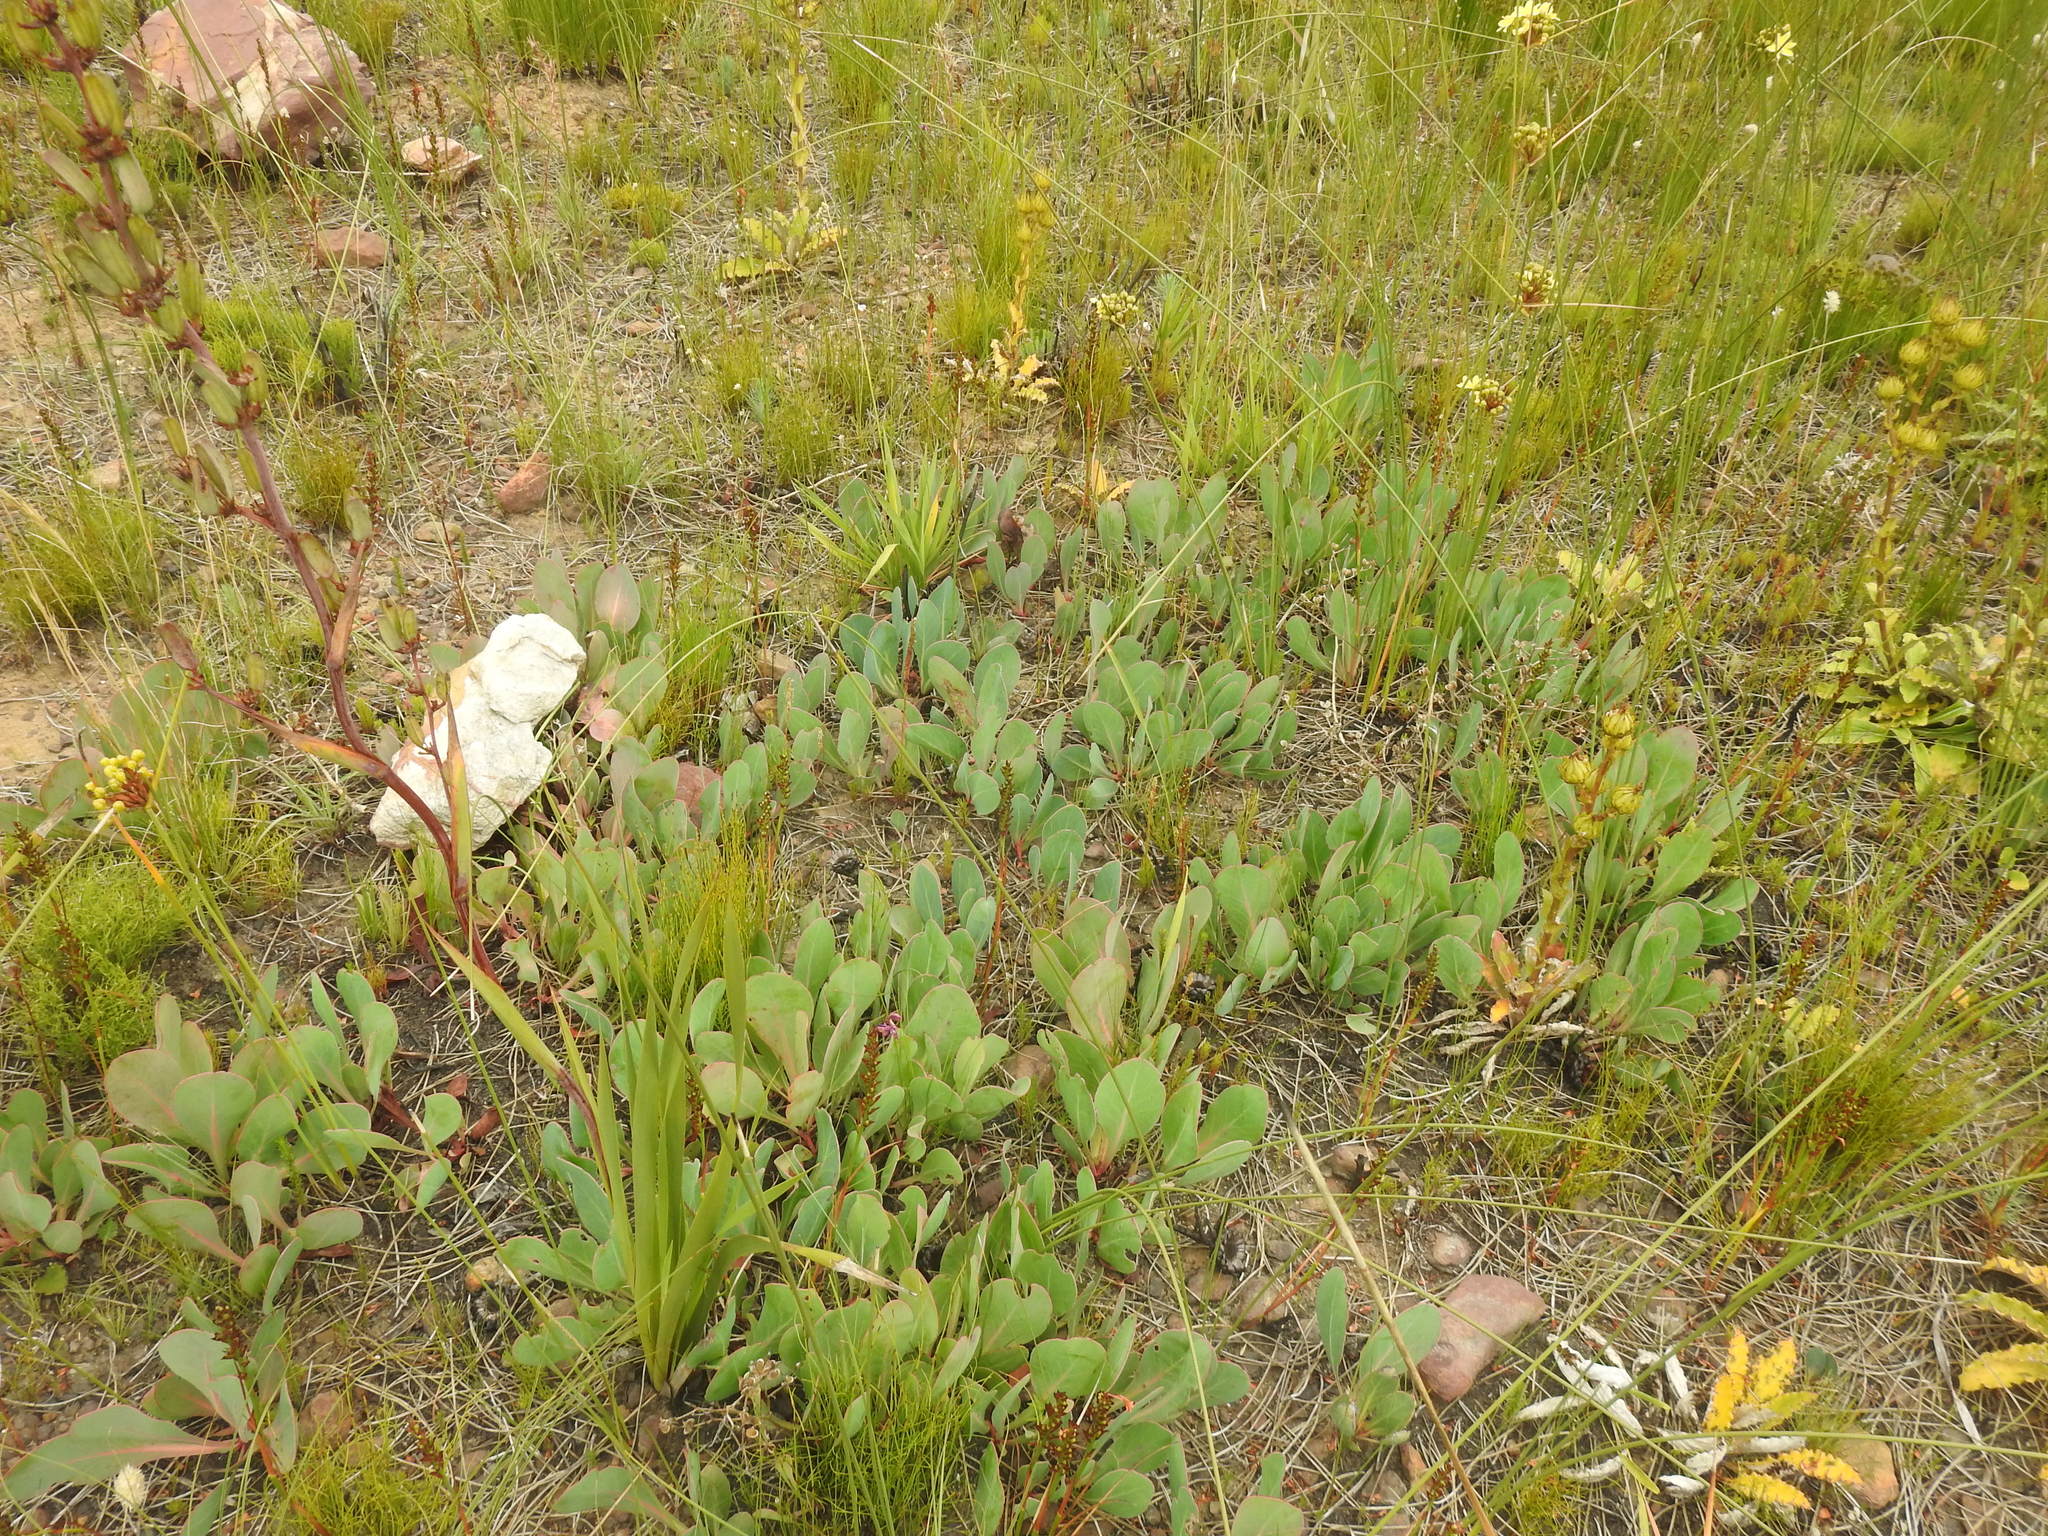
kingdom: Plantae
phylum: Tracheophyta
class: Magnoliopsida
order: Proteales
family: Proteaceae
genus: Protea
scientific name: Protea acaulos
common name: Common ground sugarbush
